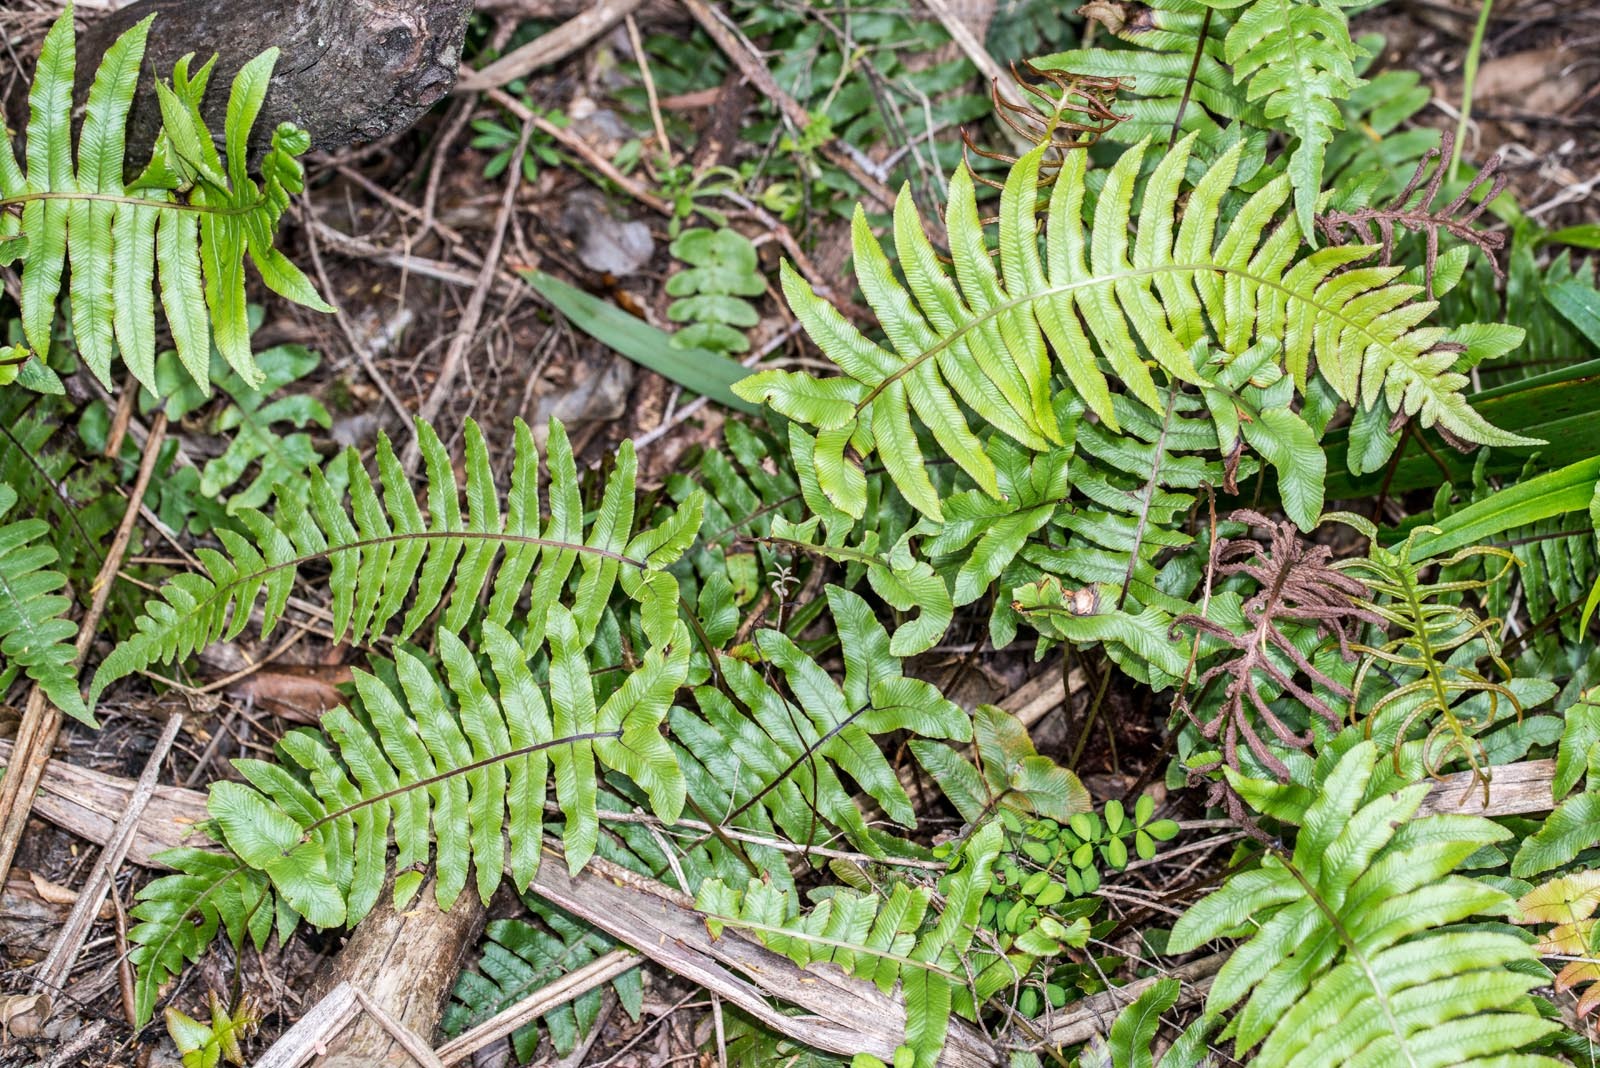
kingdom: Plantae
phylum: Tracheophyta
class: Polypodiopsida
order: Polypodiales
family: Blechnaceae
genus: Cranfillia
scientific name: Cranfillia vulcanica
